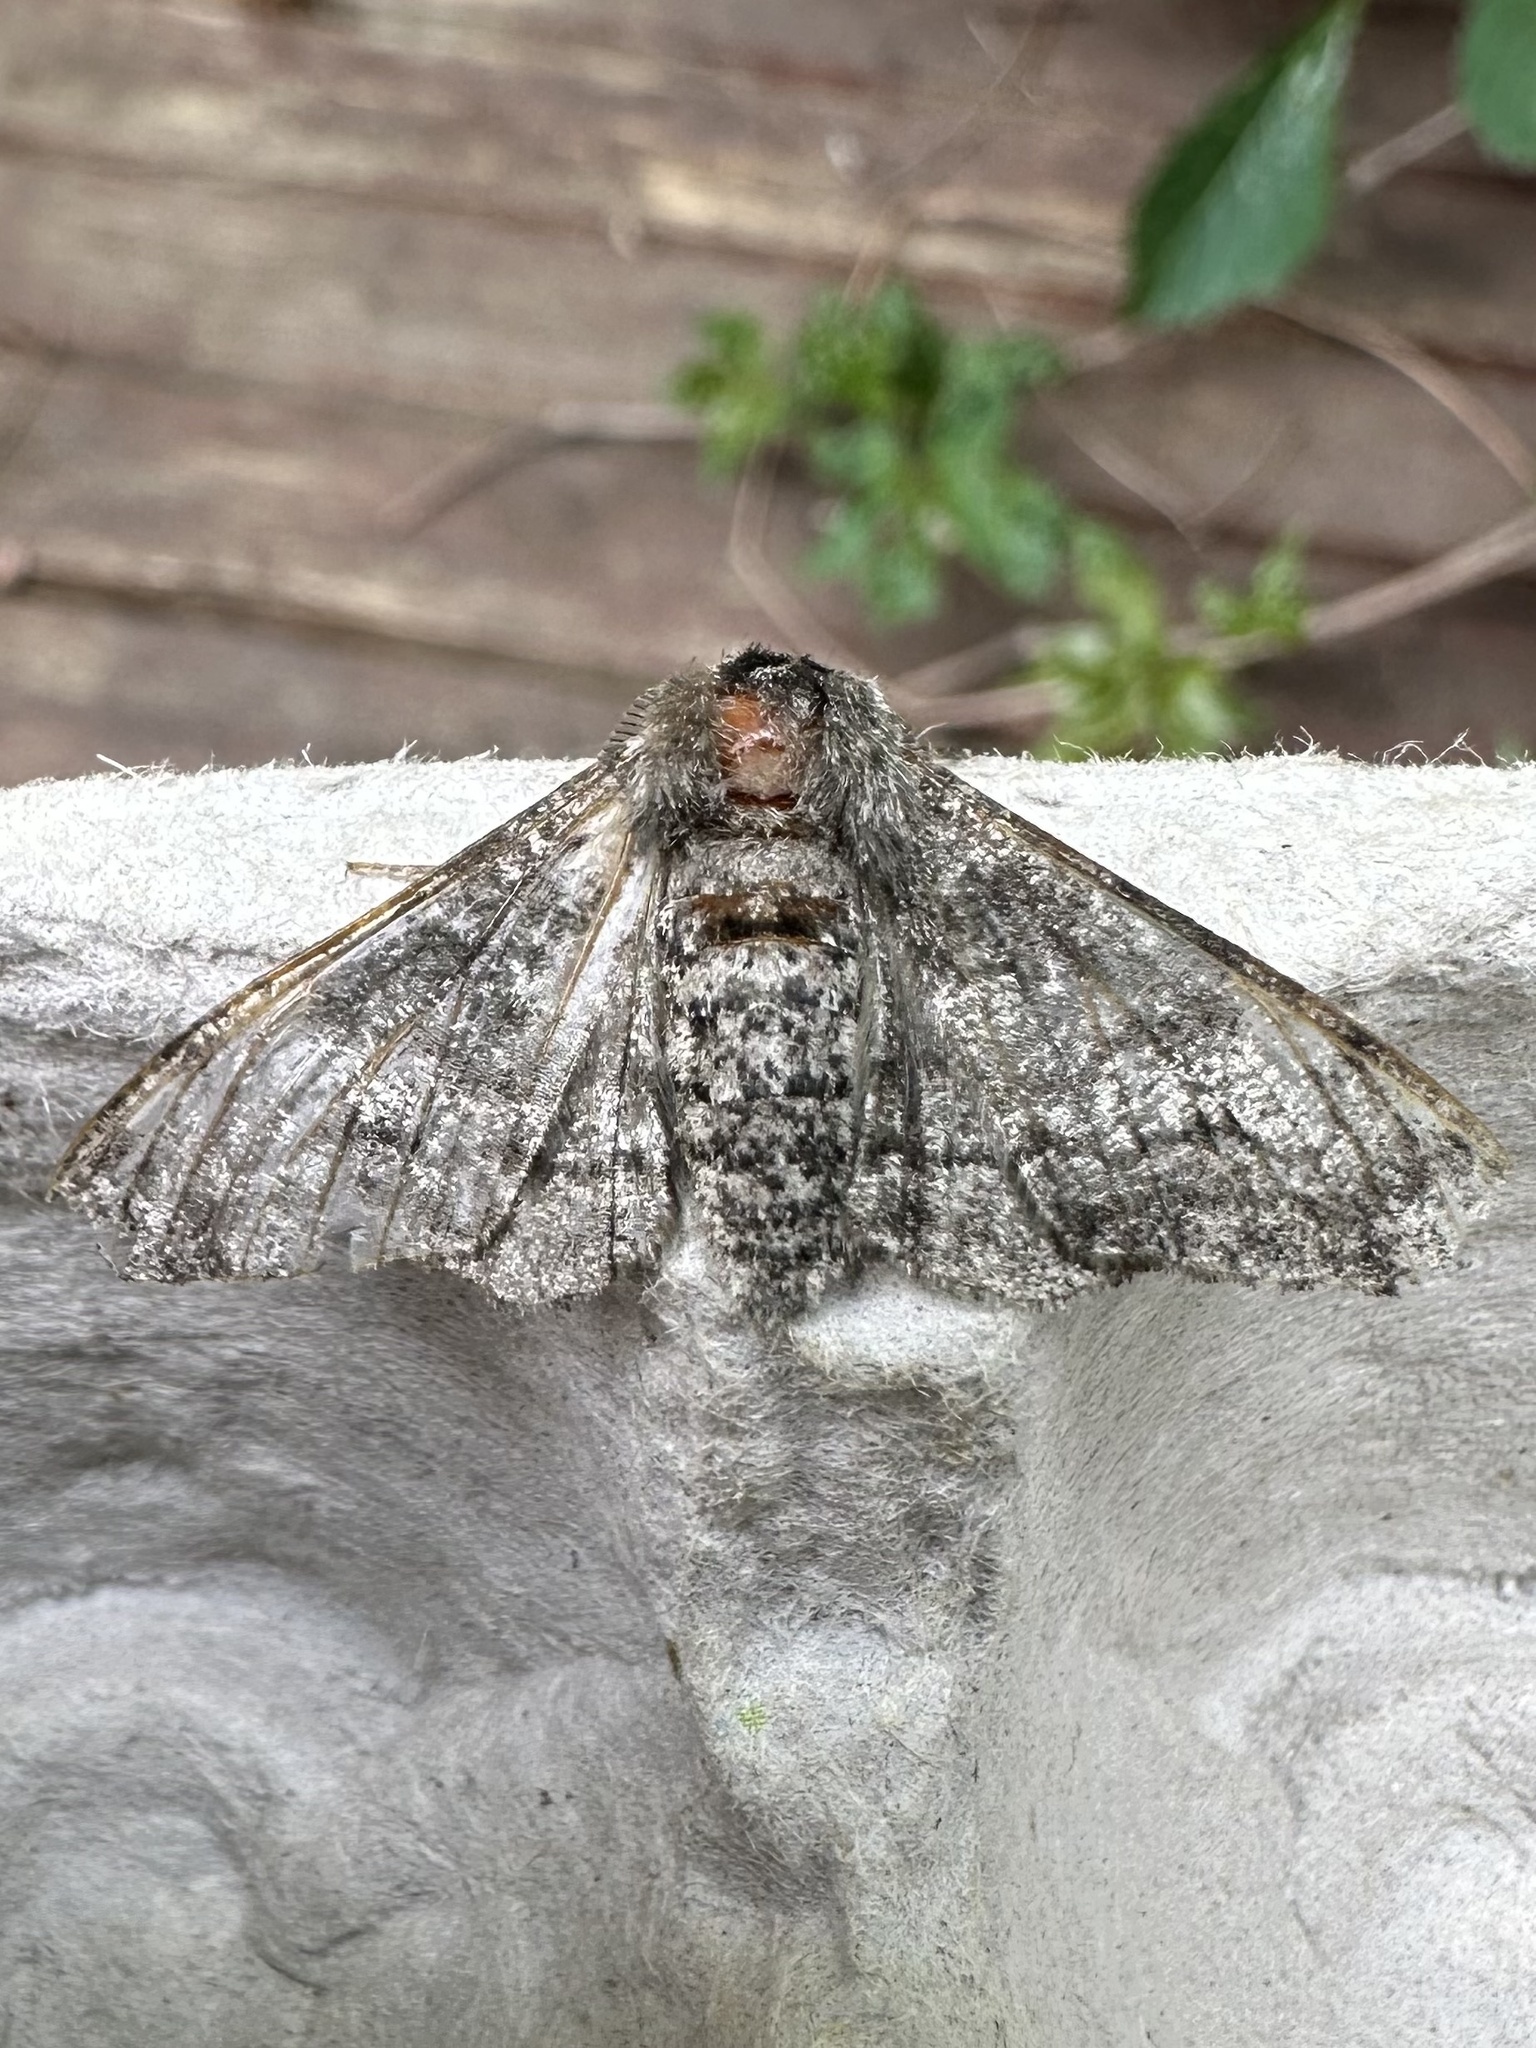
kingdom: Animalia
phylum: Arthropoda
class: Insecta
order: Lepidoptera
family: Geometridae
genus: Biston
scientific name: Biston betularia
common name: Peppered moth
